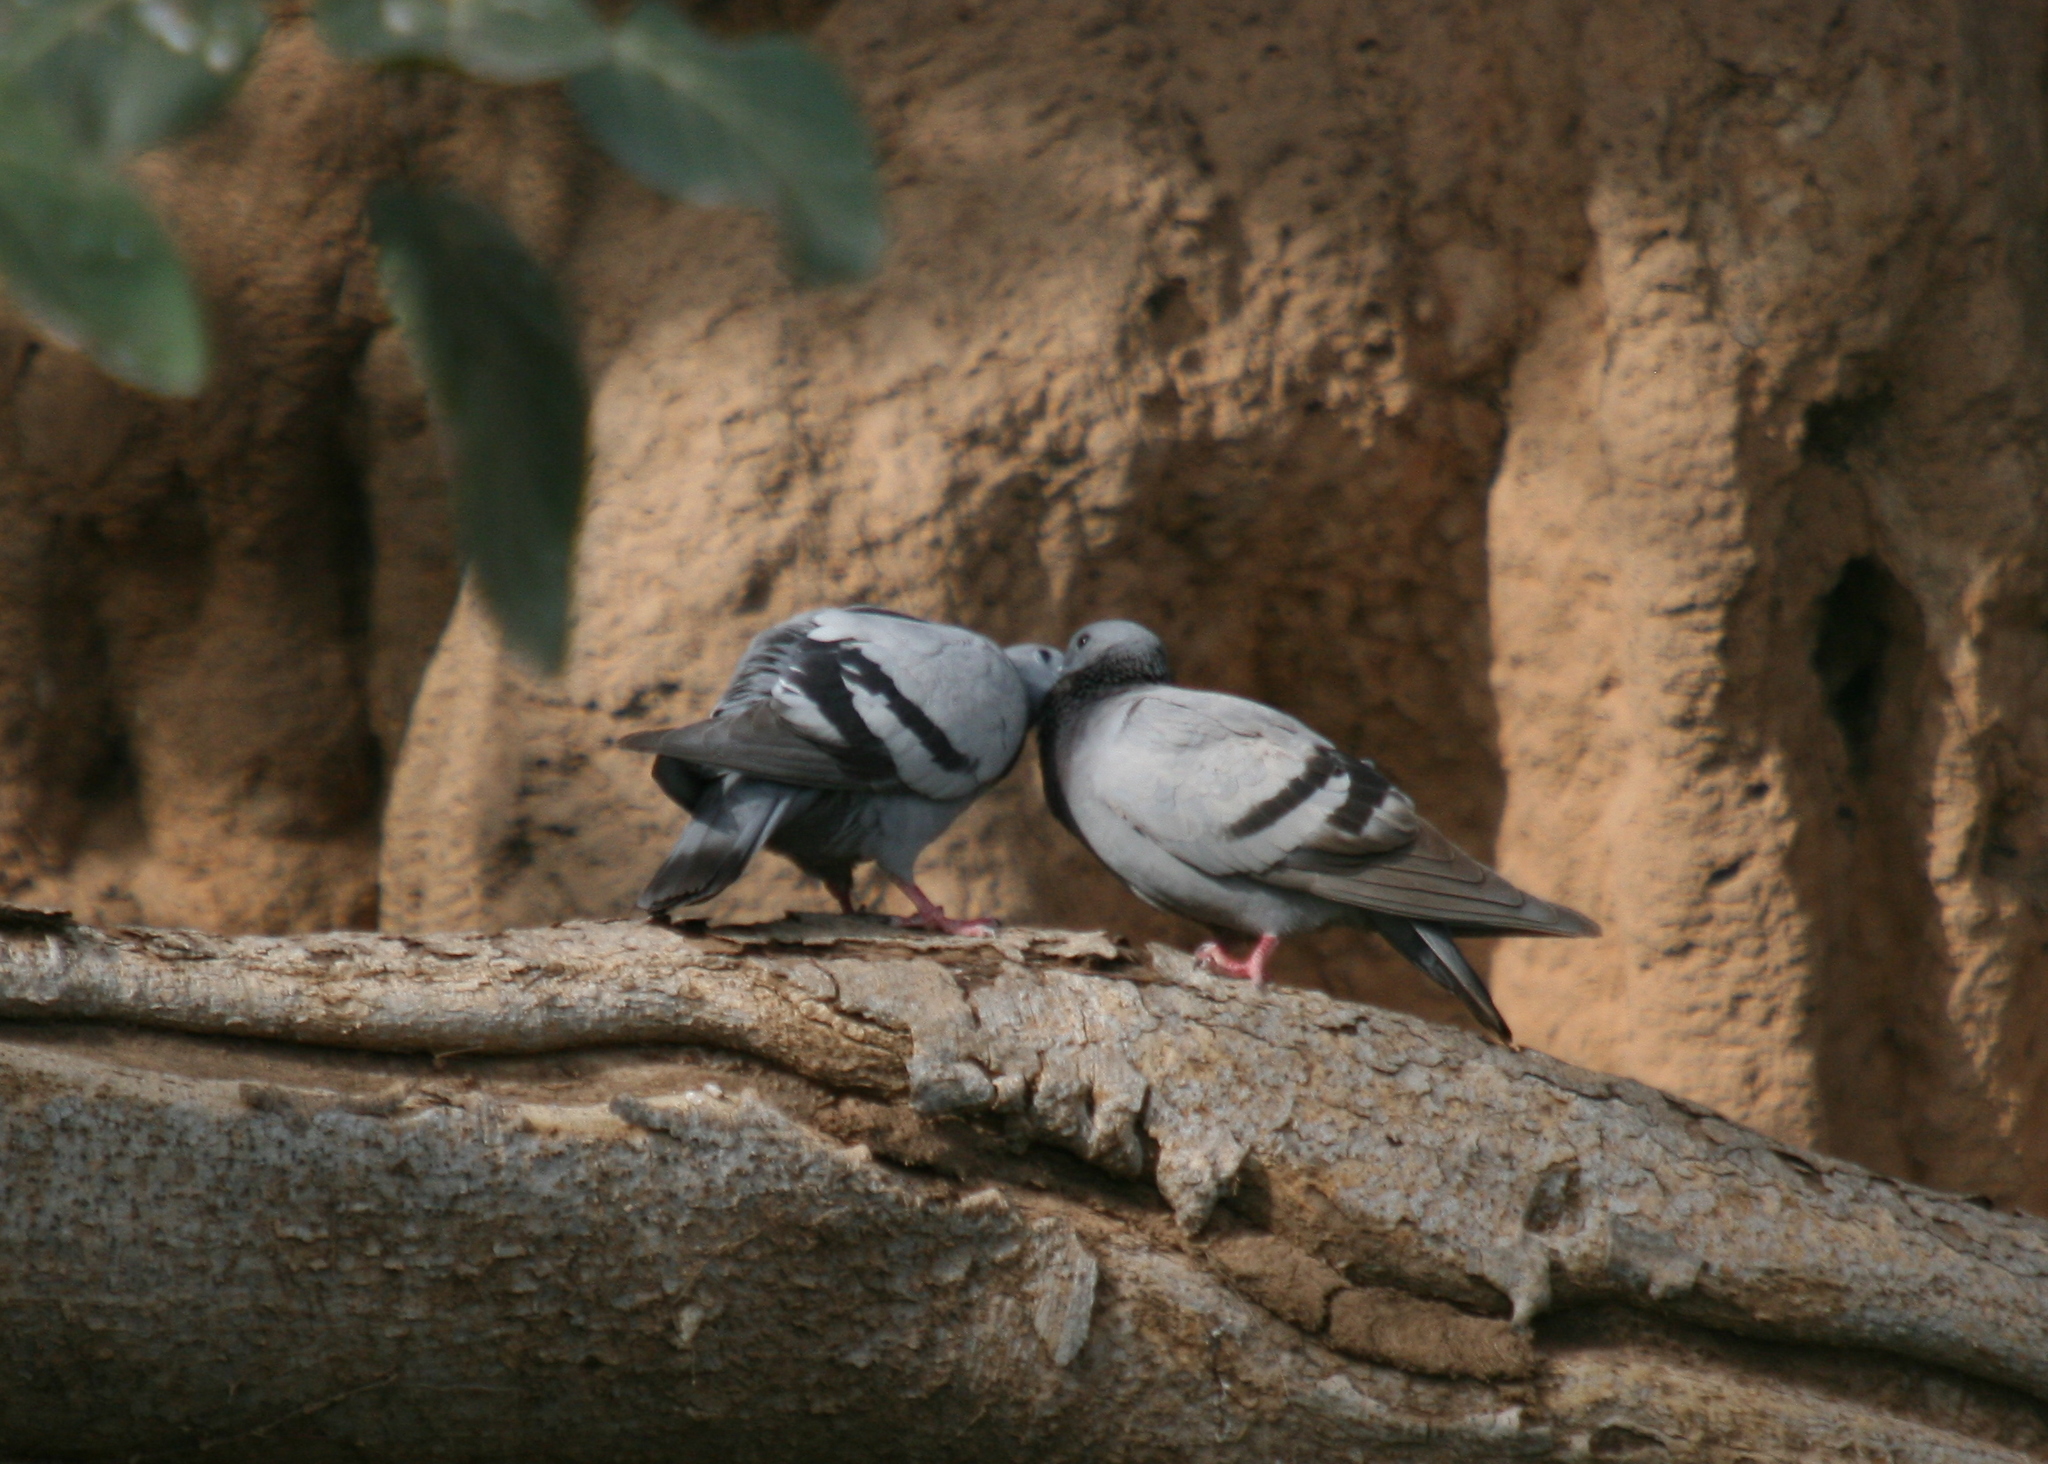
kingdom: Animalia
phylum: Chordata
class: Aves
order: Columbiformes
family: Columbidae
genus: Columba
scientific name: Columba livia
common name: Rock pigeon
